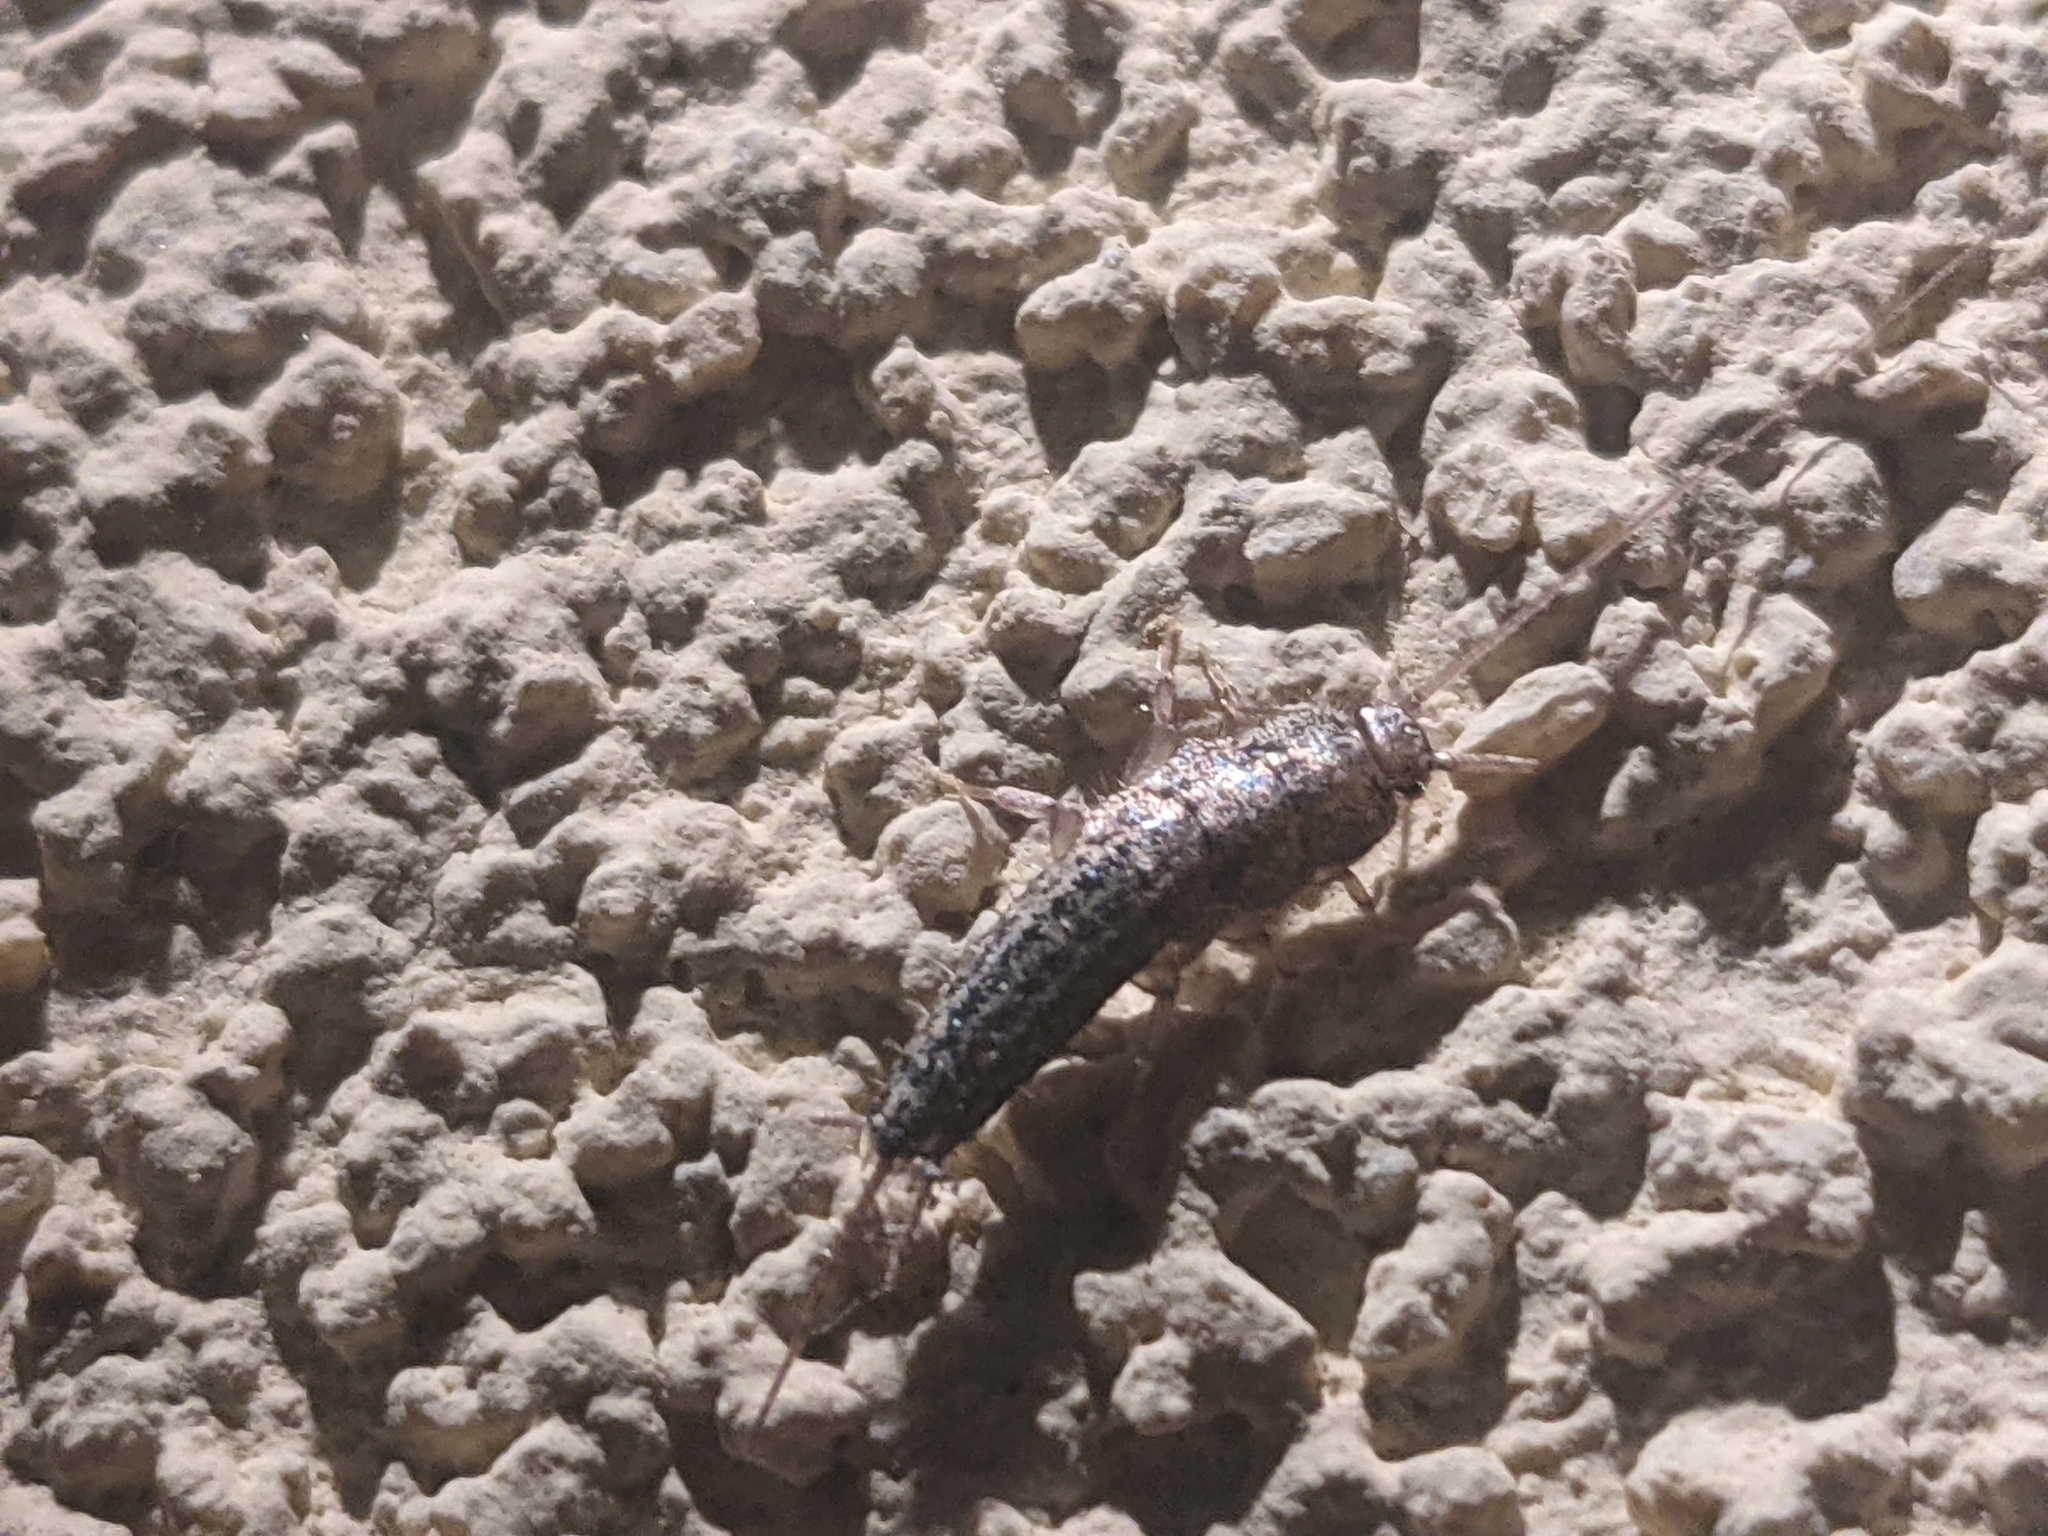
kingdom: Animalia
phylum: Arthropoda
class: Insecta
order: Zygentoma
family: Lepismatidae
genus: Ctenolepisma
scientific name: Ctenolepisma lineata
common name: Four-lined silverfish
